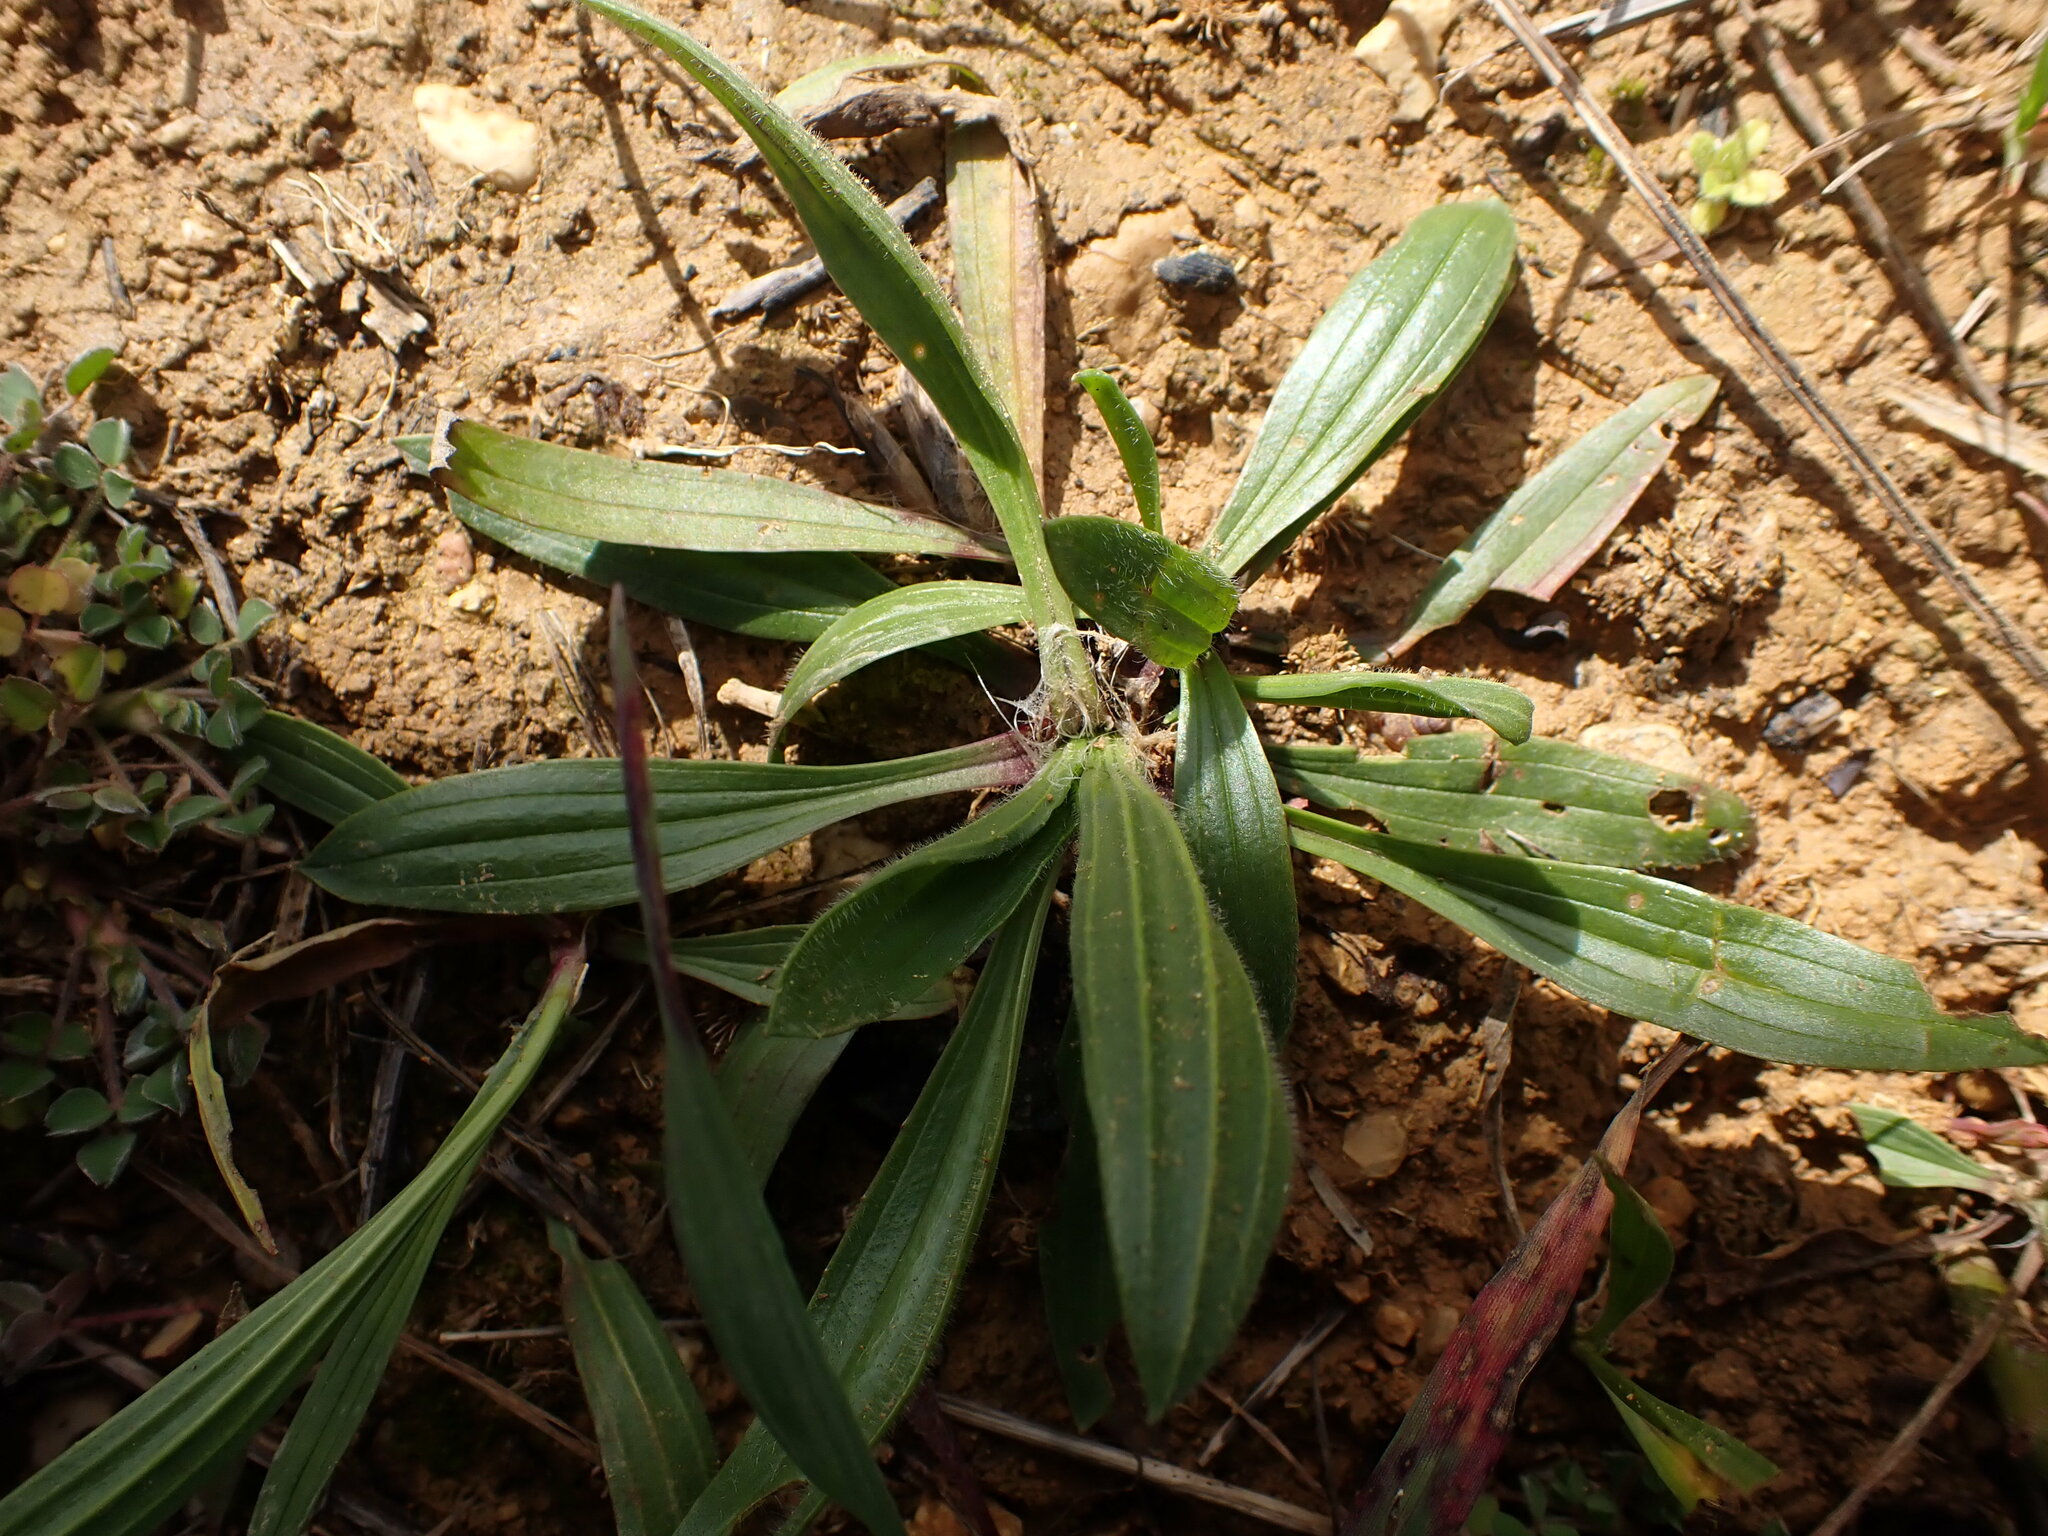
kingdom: Plantae
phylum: Tracheophyta
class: Magnoliopsida
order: Lamiales
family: Plantaginaceae
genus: Plantago
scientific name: Plantago lanceolata
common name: Ribwort plantain
